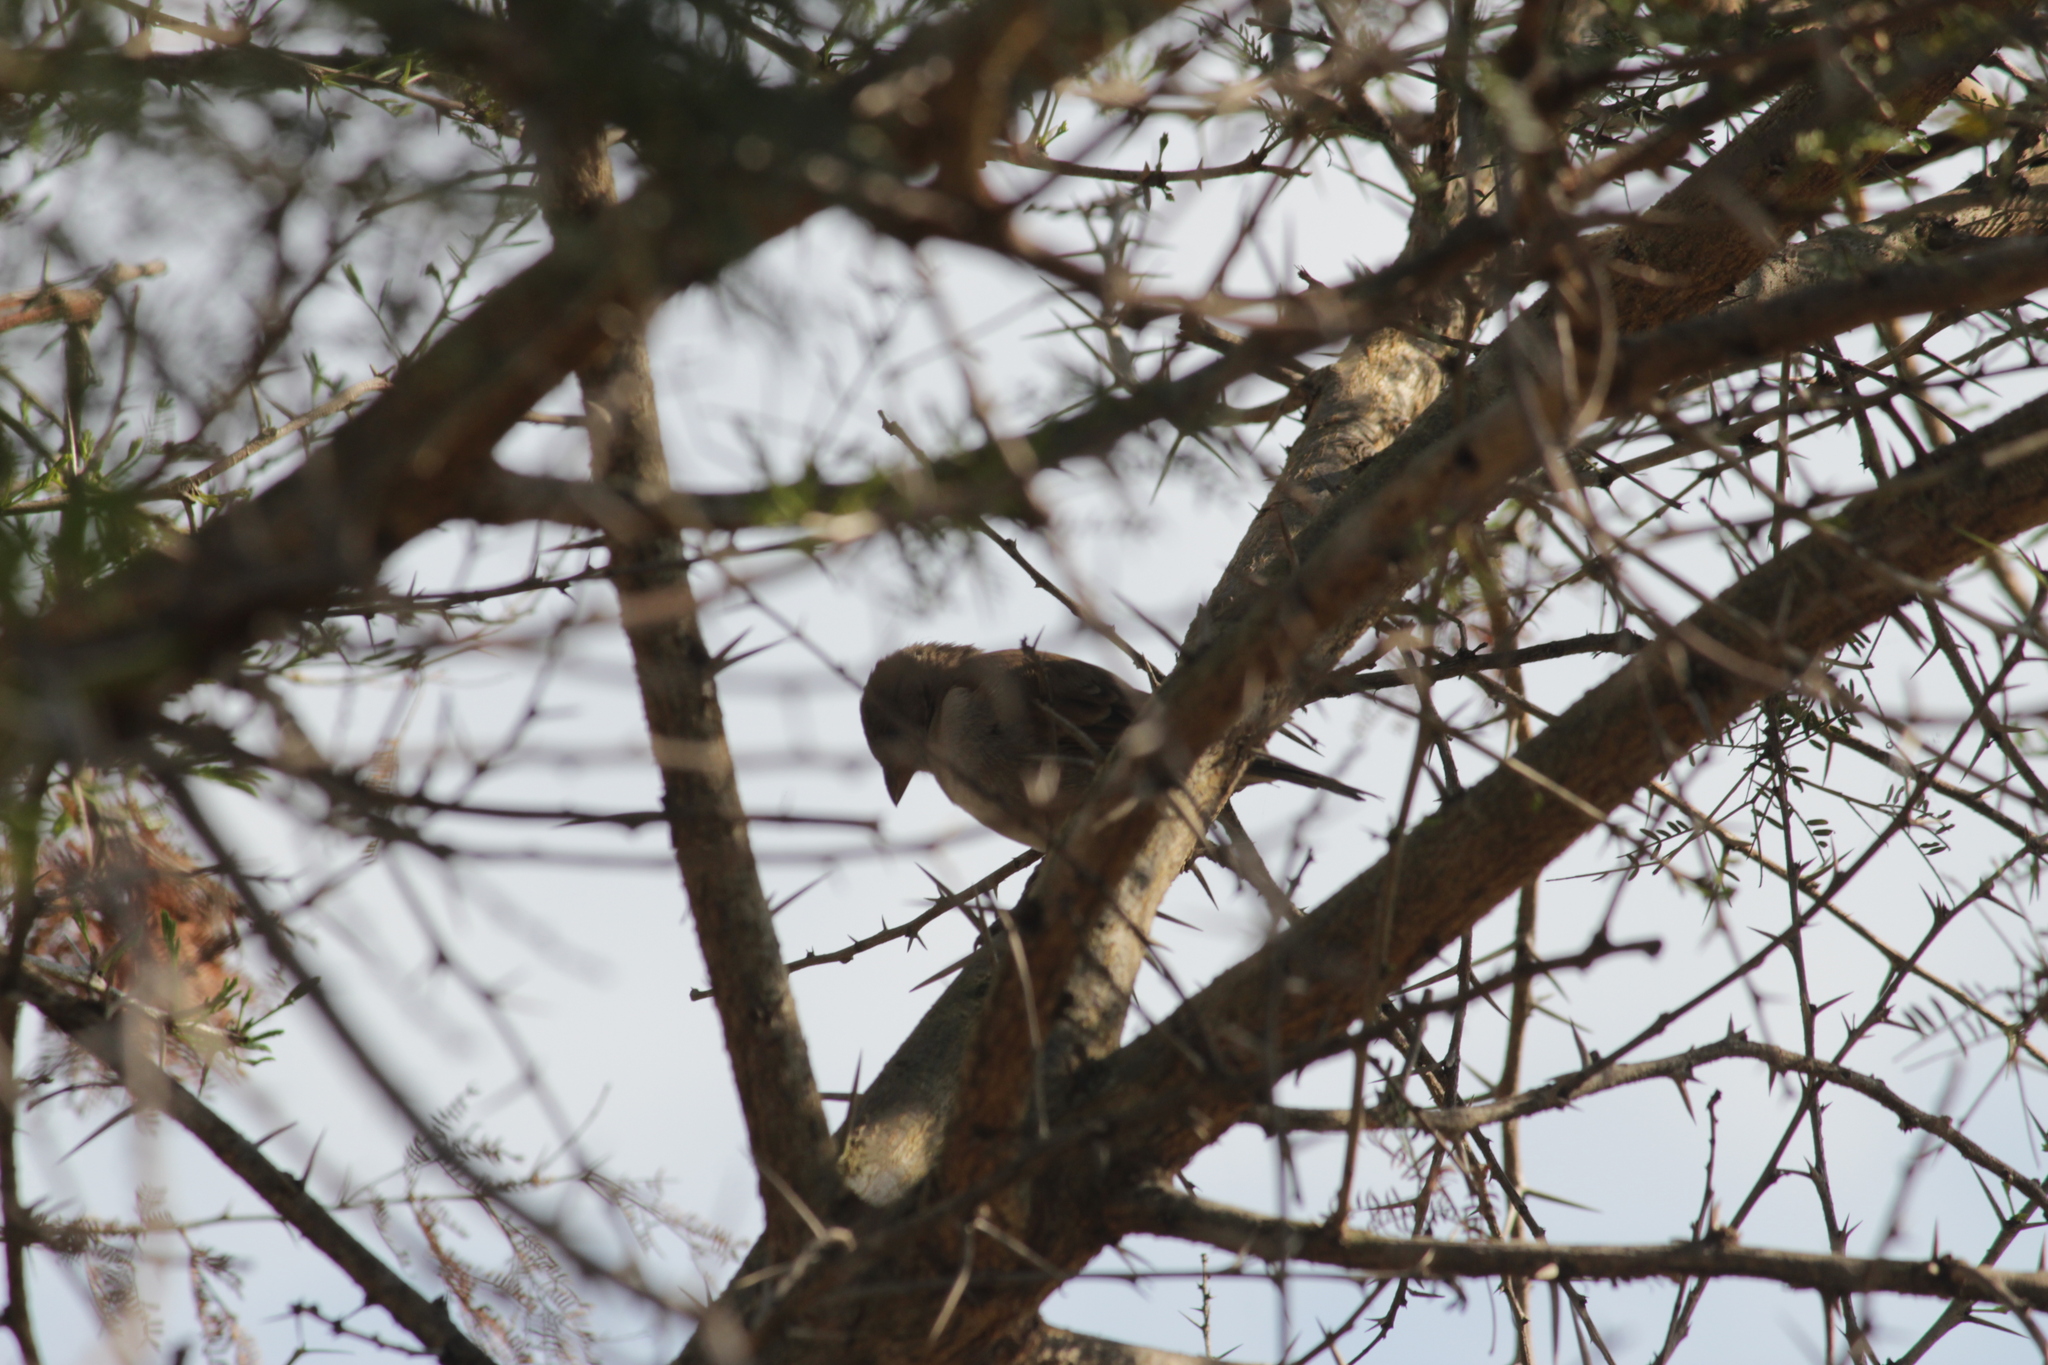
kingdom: Animalia
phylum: Chordata
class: Aves
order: Passeriformes
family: Passeridae
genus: Passer
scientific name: Passer diffusus
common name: Southern grey-headed sparrow
